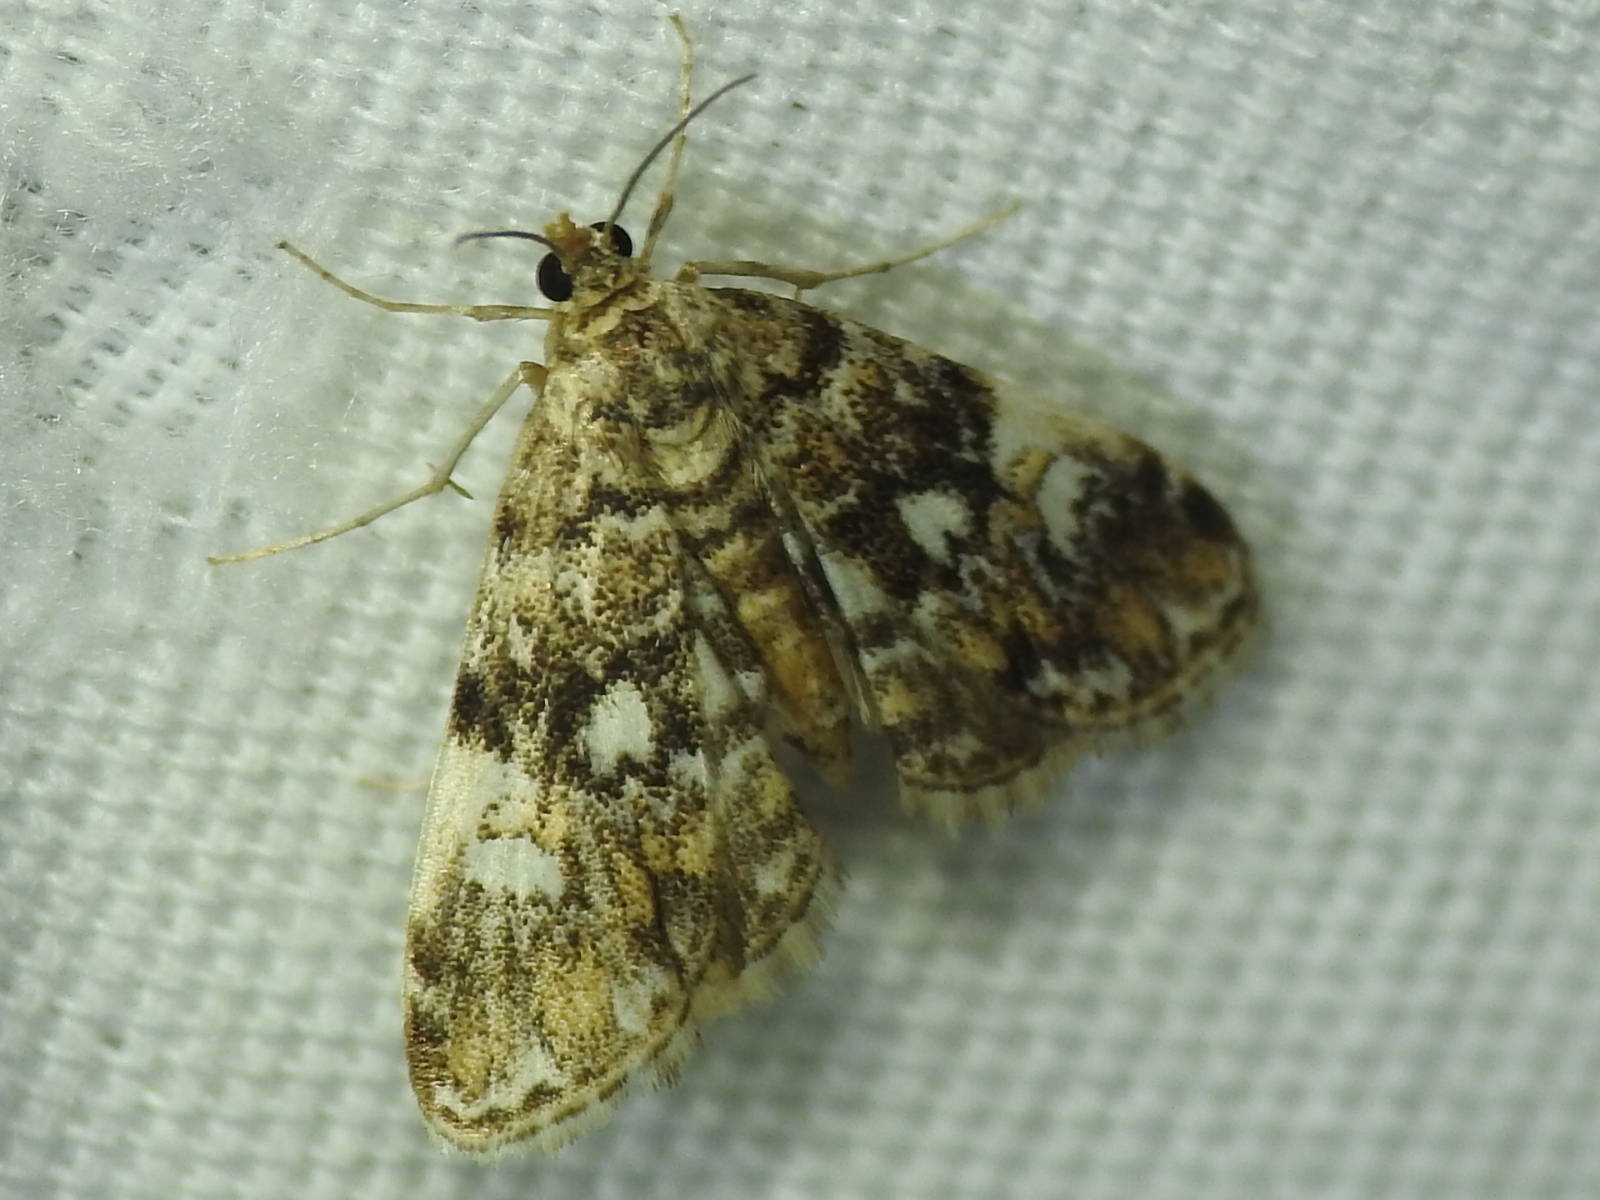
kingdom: Animalia
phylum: Arthropoda
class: Insecta
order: Lepidoptera
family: Crambidae
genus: Elophila
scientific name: Elophila obliteralis
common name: Waterlily leafcutter moth
